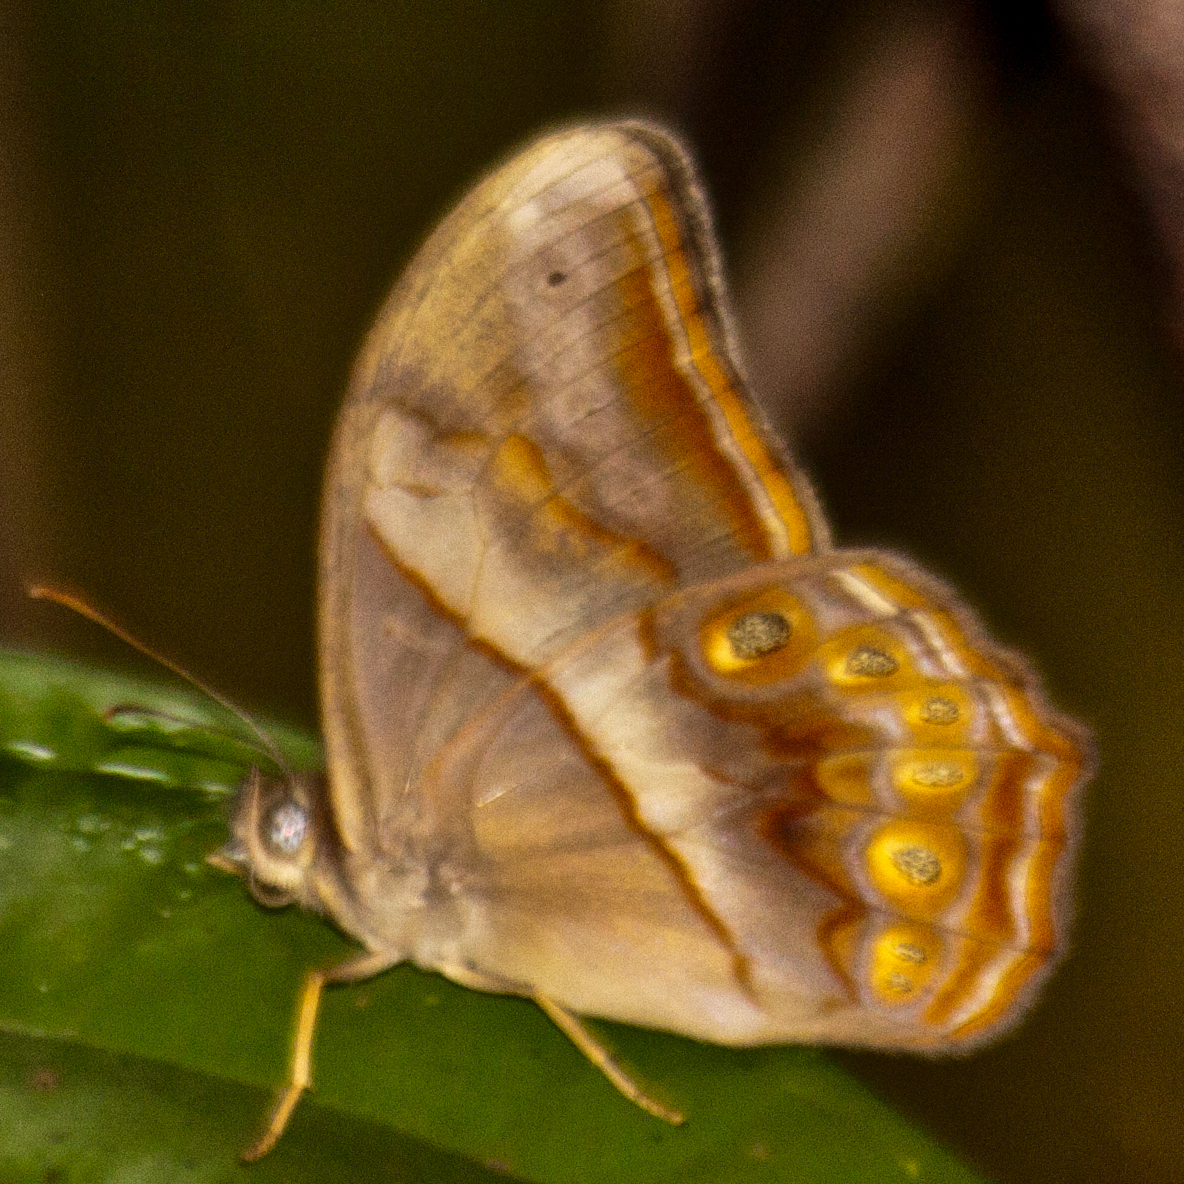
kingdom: Animalia
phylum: Arthropoda
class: Insecta
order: Lepidoptera
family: Nymphalidae
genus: Lethe
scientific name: Lethe minerva
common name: Banded red forester
